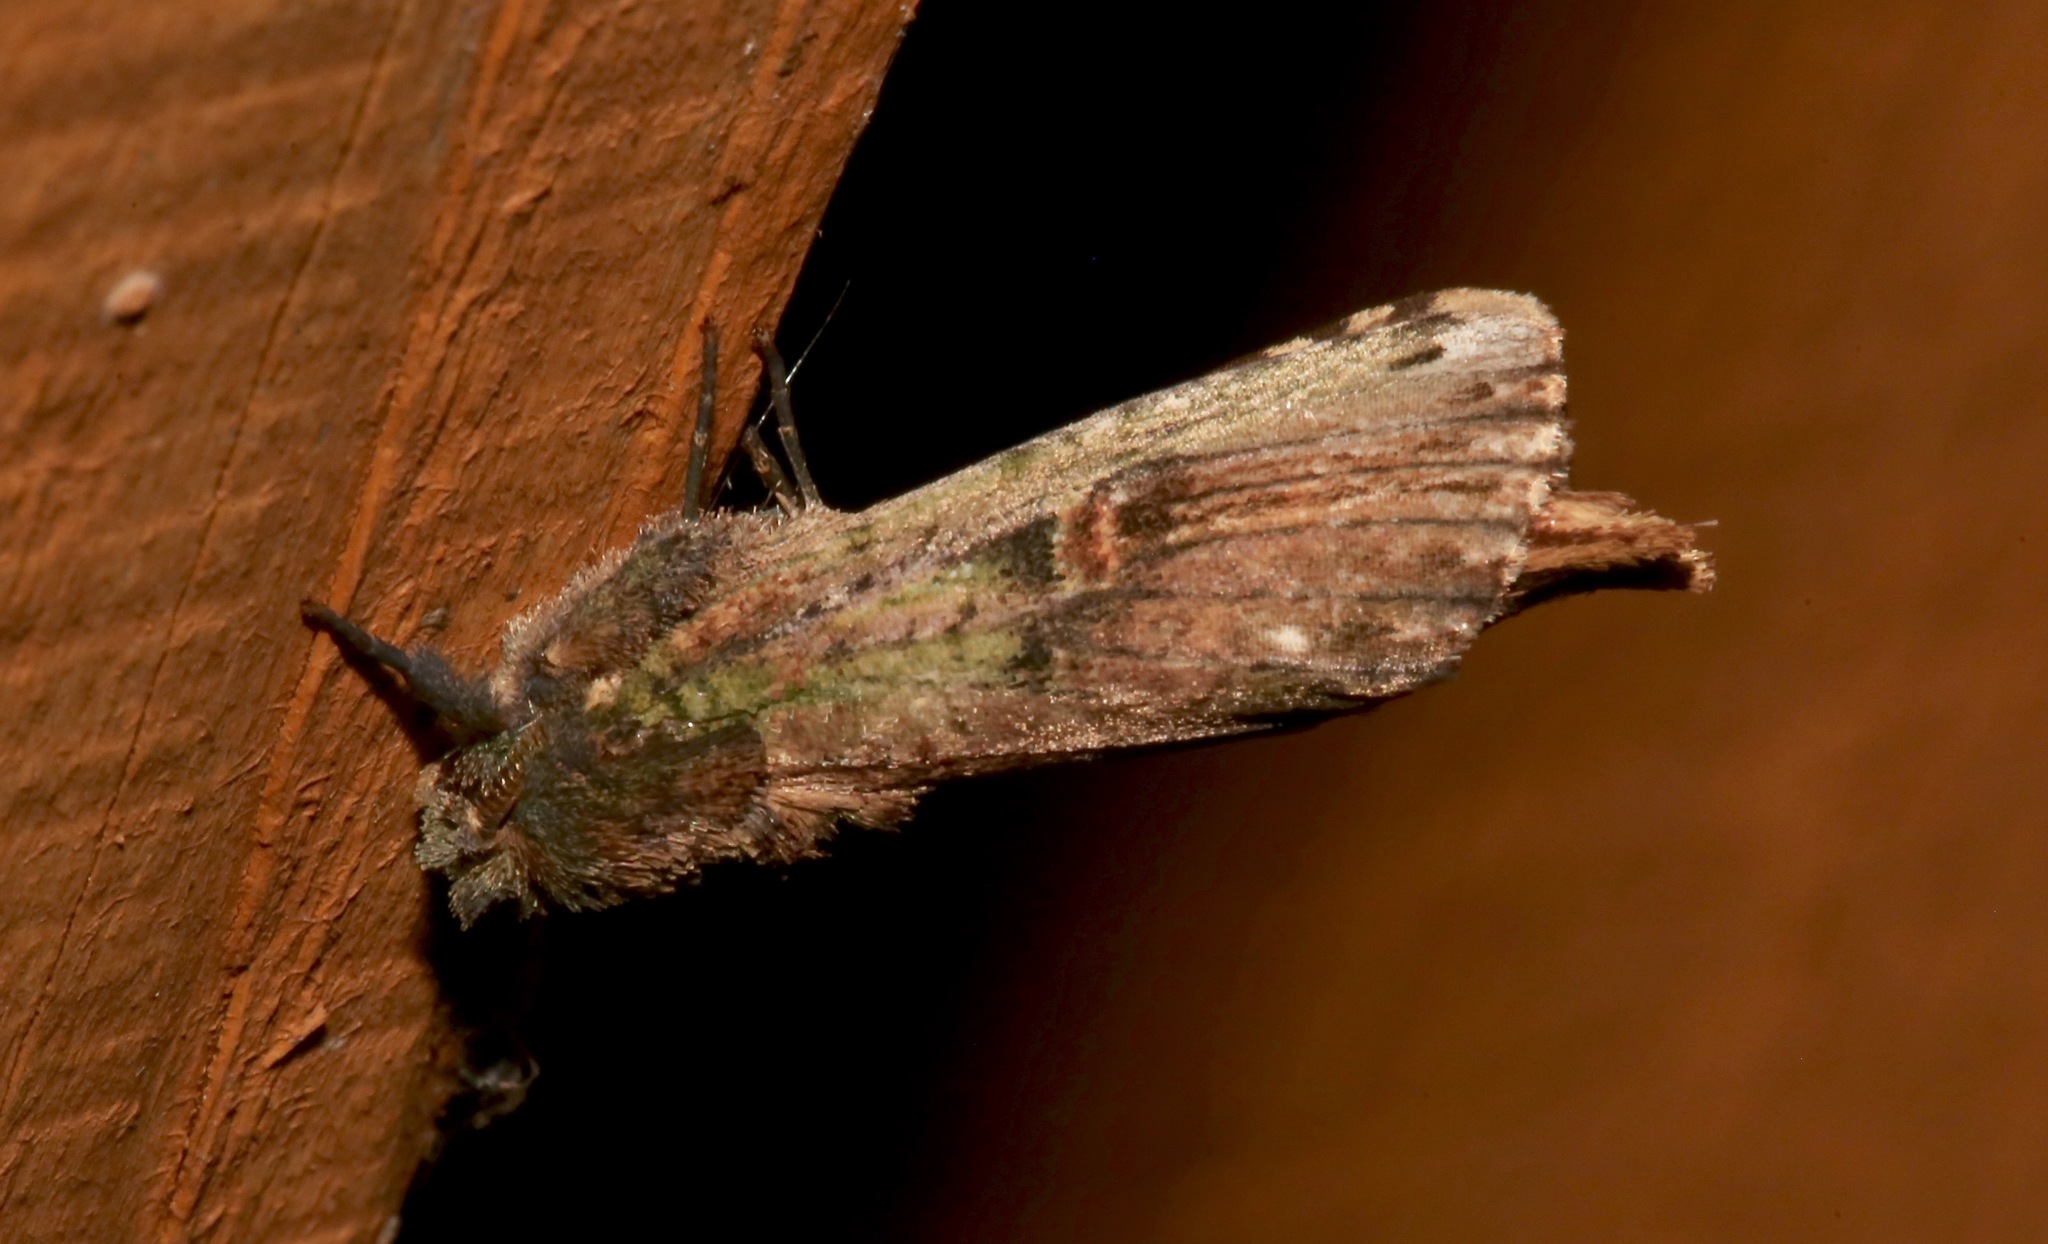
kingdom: Animalia
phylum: Arthropoda
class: Insecta
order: Lepidoptera
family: Notodontidae
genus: Schizura
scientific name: Schizura ipomaeae
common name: Morning-glory prominent
